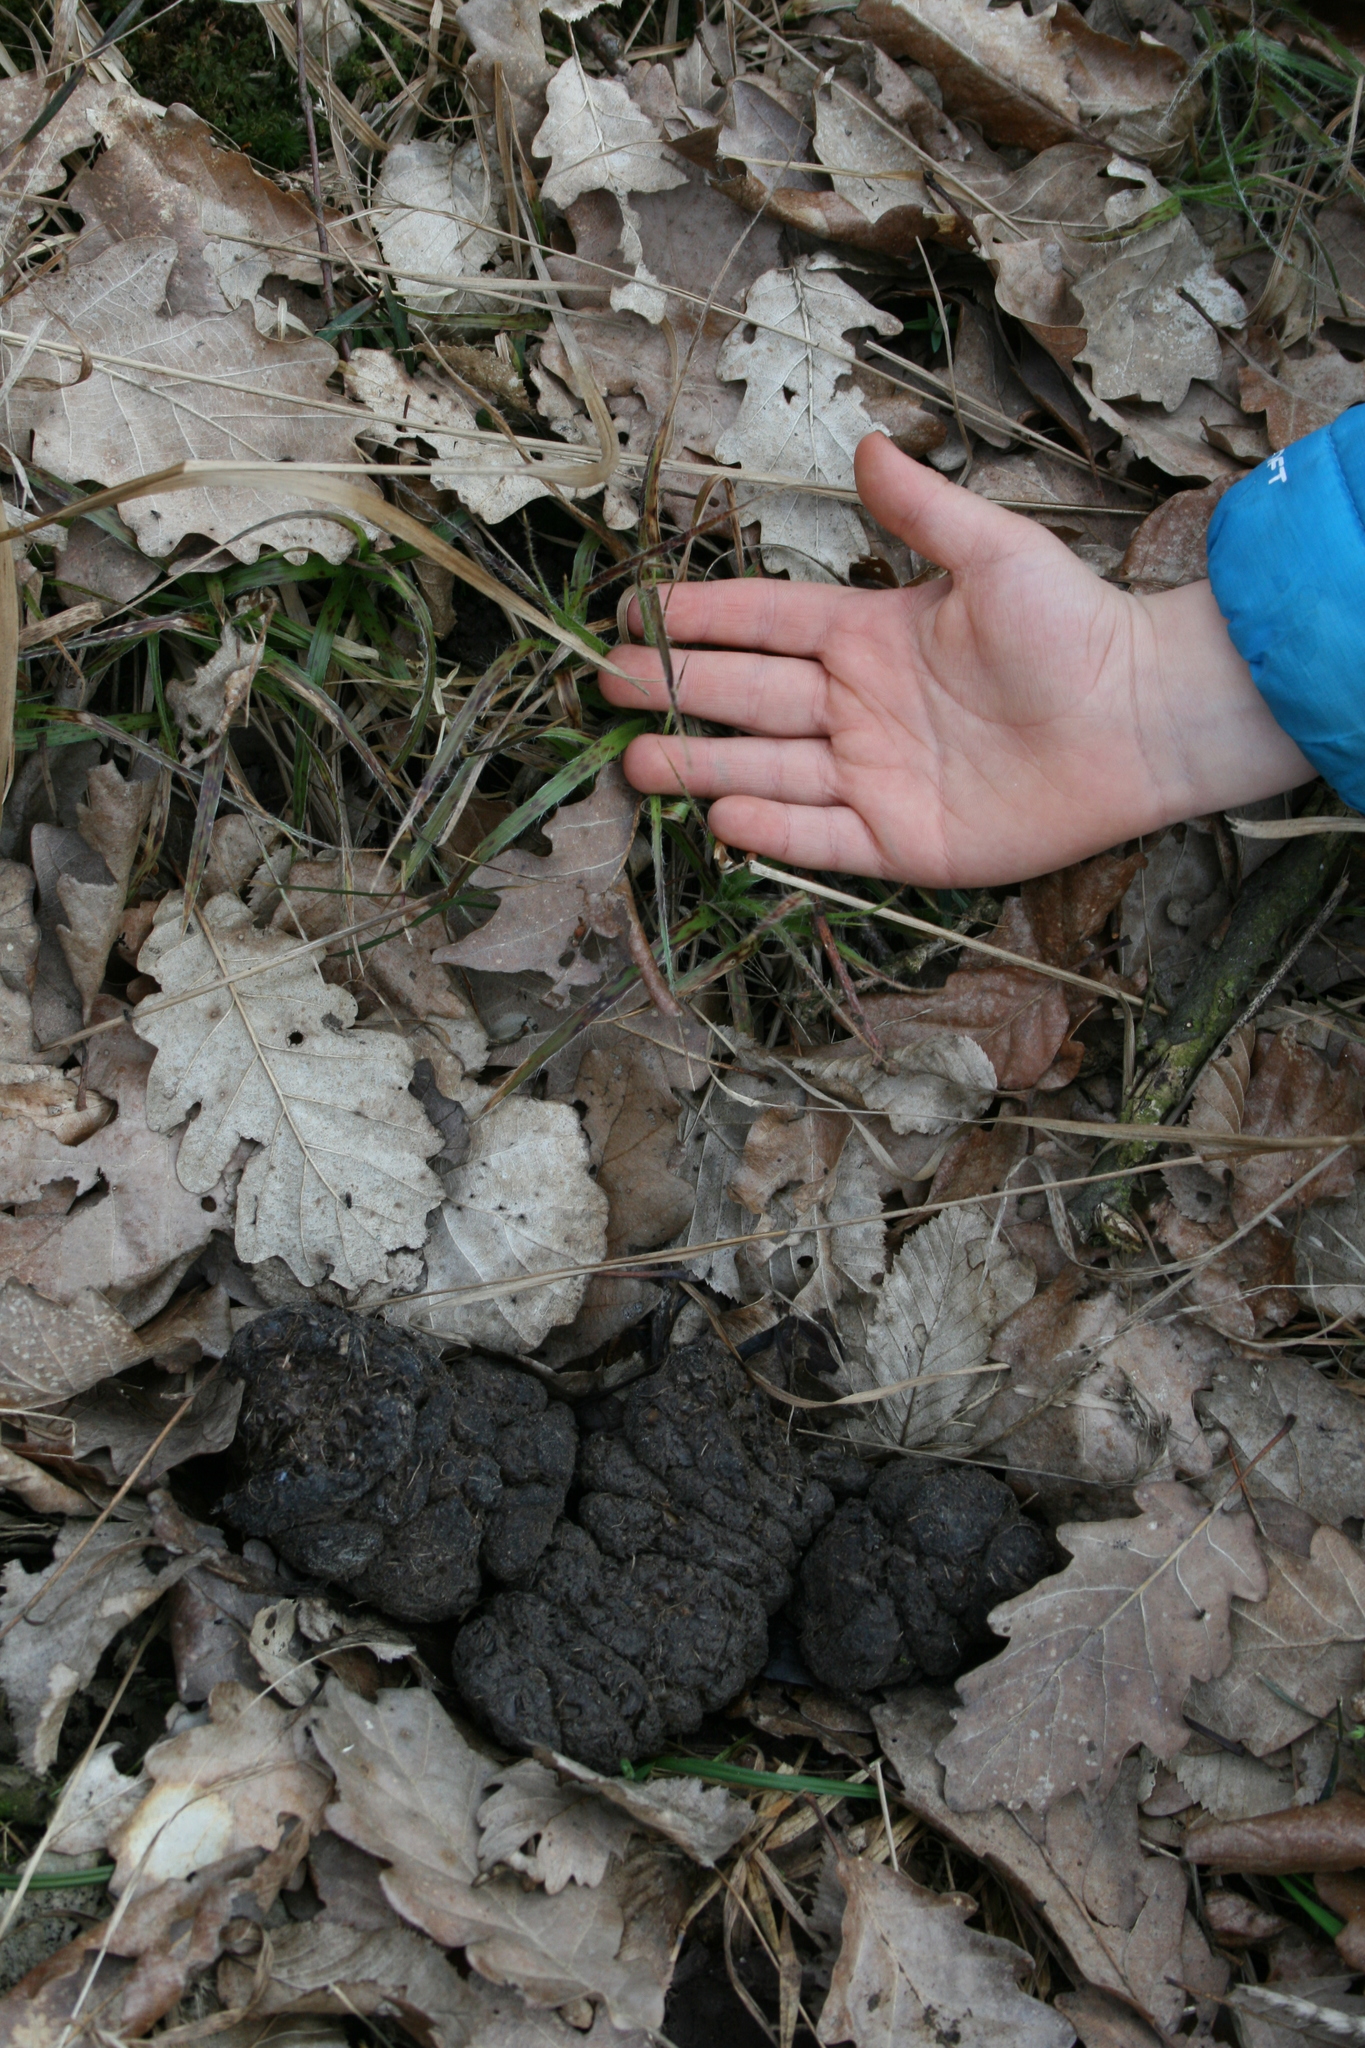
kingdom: Animalia
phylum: Chordata
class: Mammalia
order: Artiodactyla
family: Suidae
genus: Sus
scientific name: Sus scrofa
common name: Wild boar
